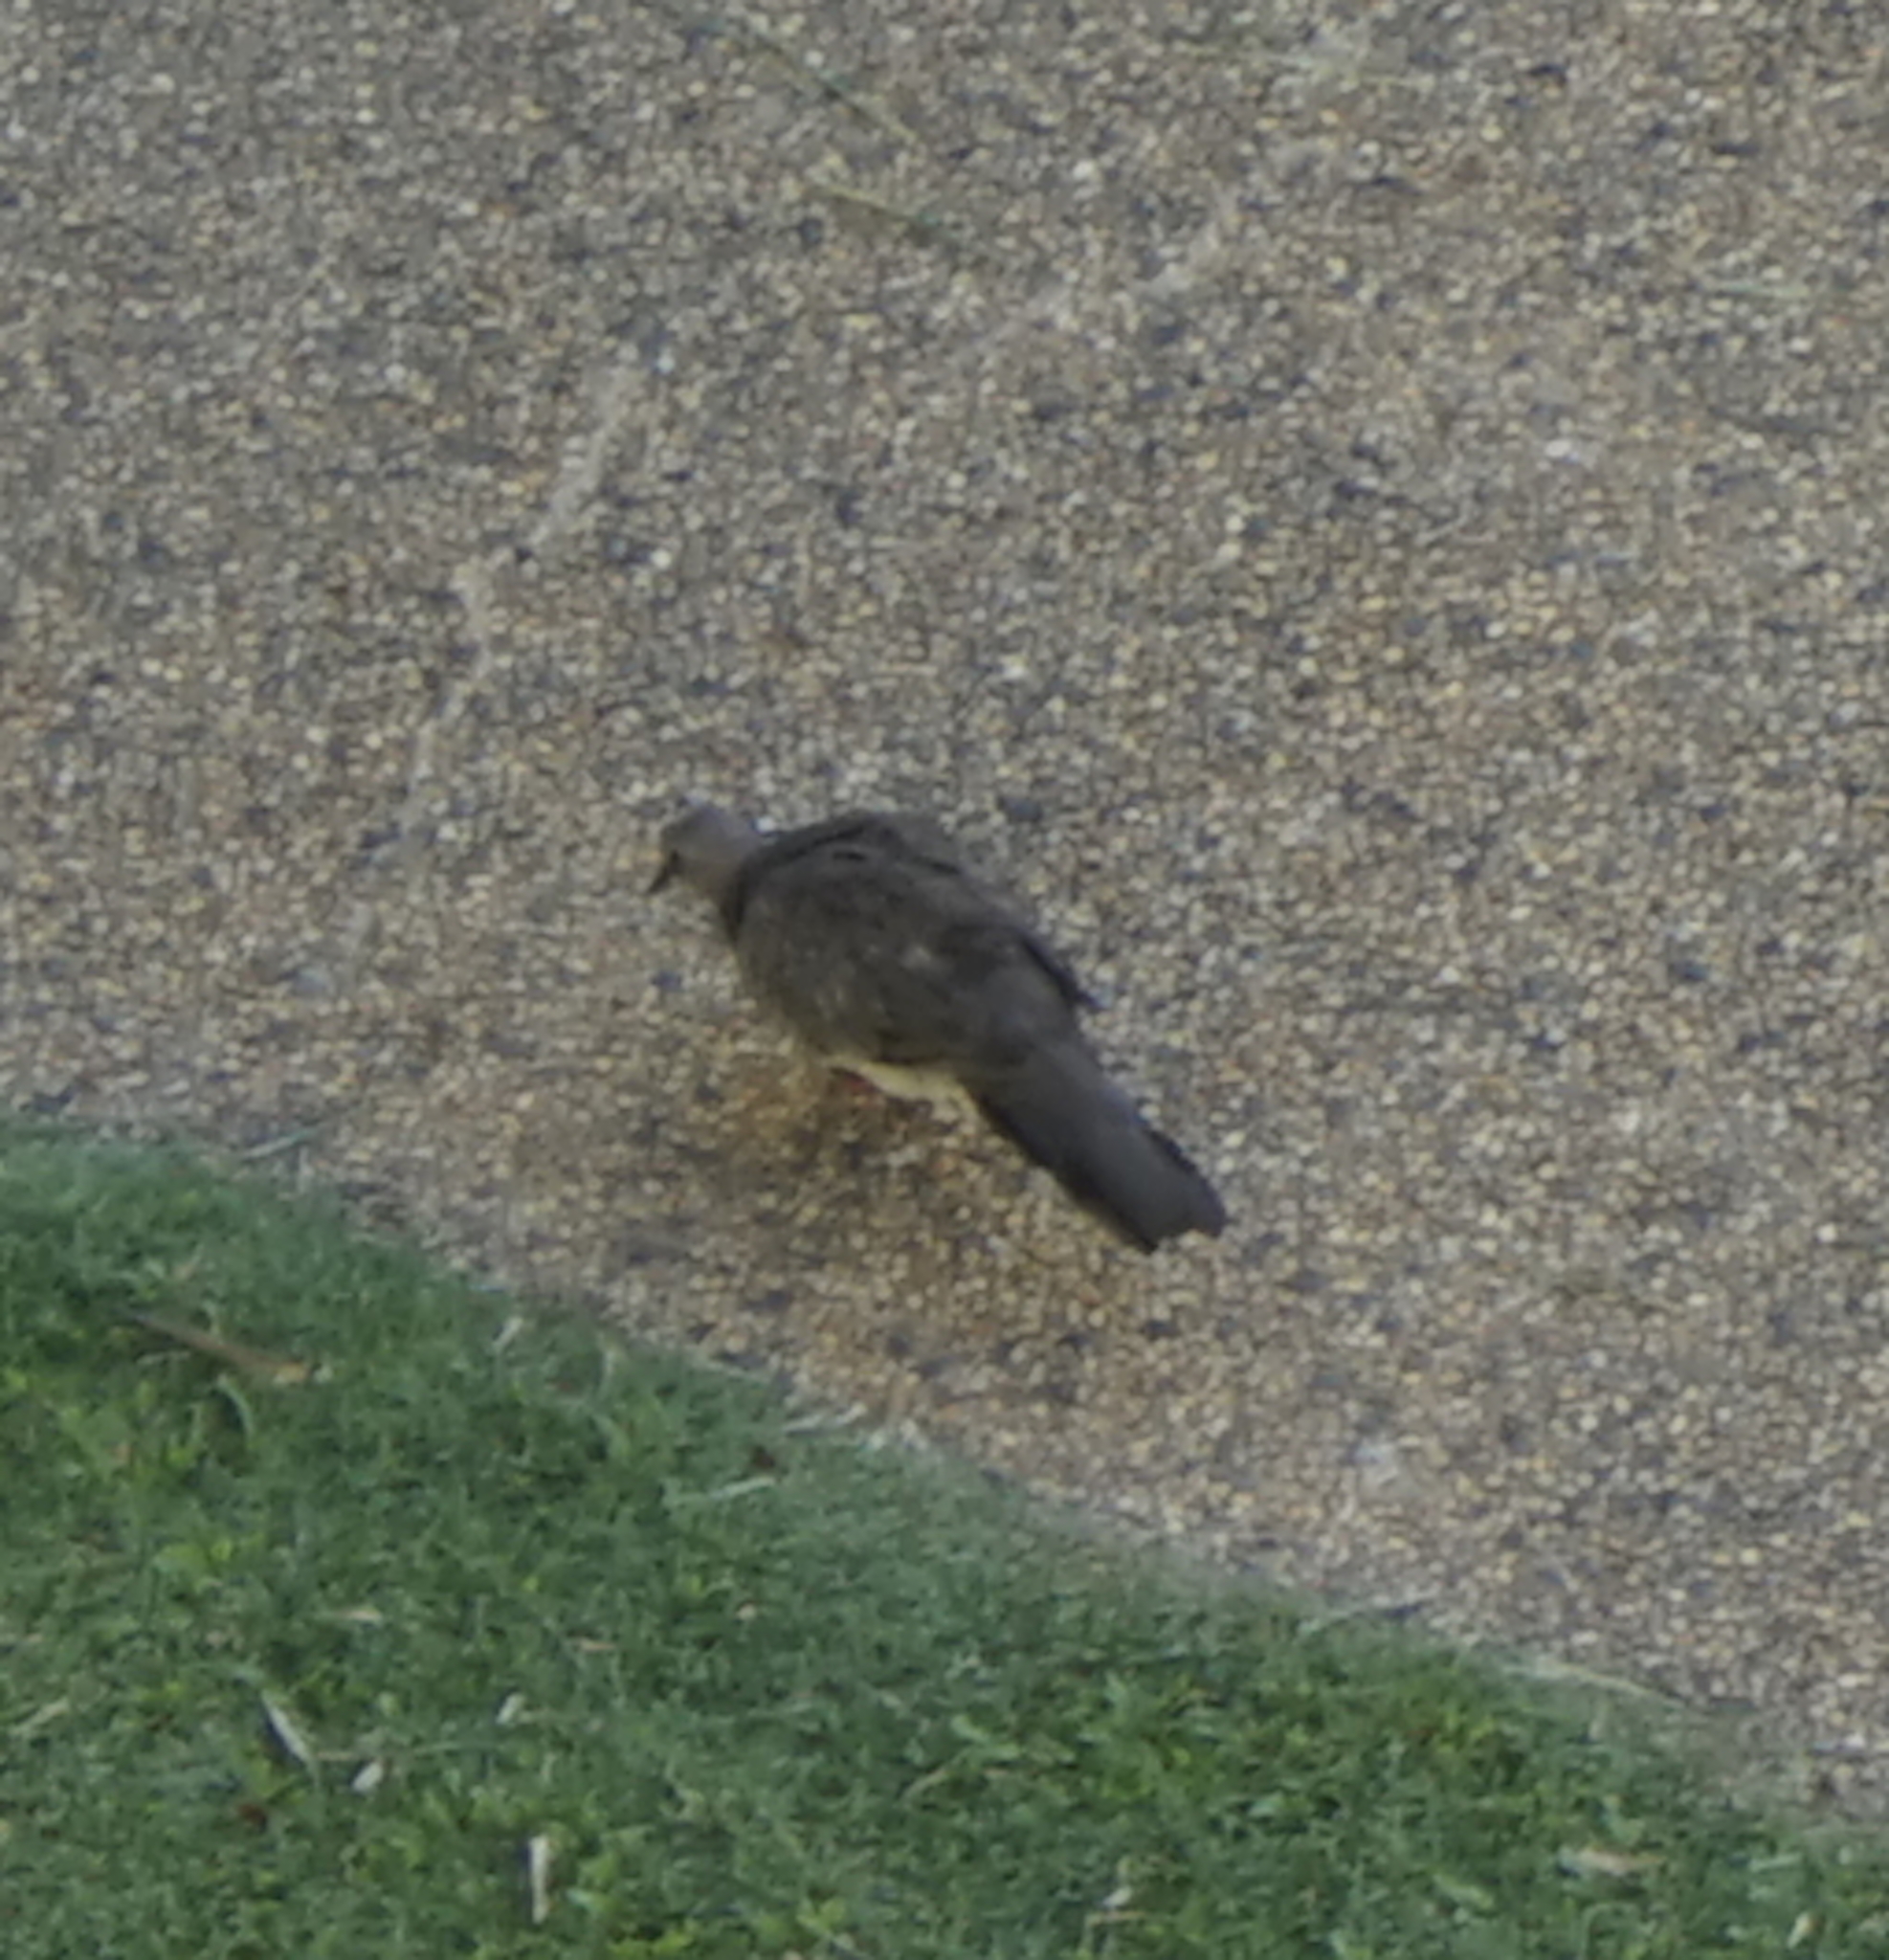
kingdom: Animalia
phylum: Chordata
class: Aves
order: Columbiformes
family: Columbidae
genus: Spilopelia
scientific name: Spilopelia chinensis
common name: Spotted dove
